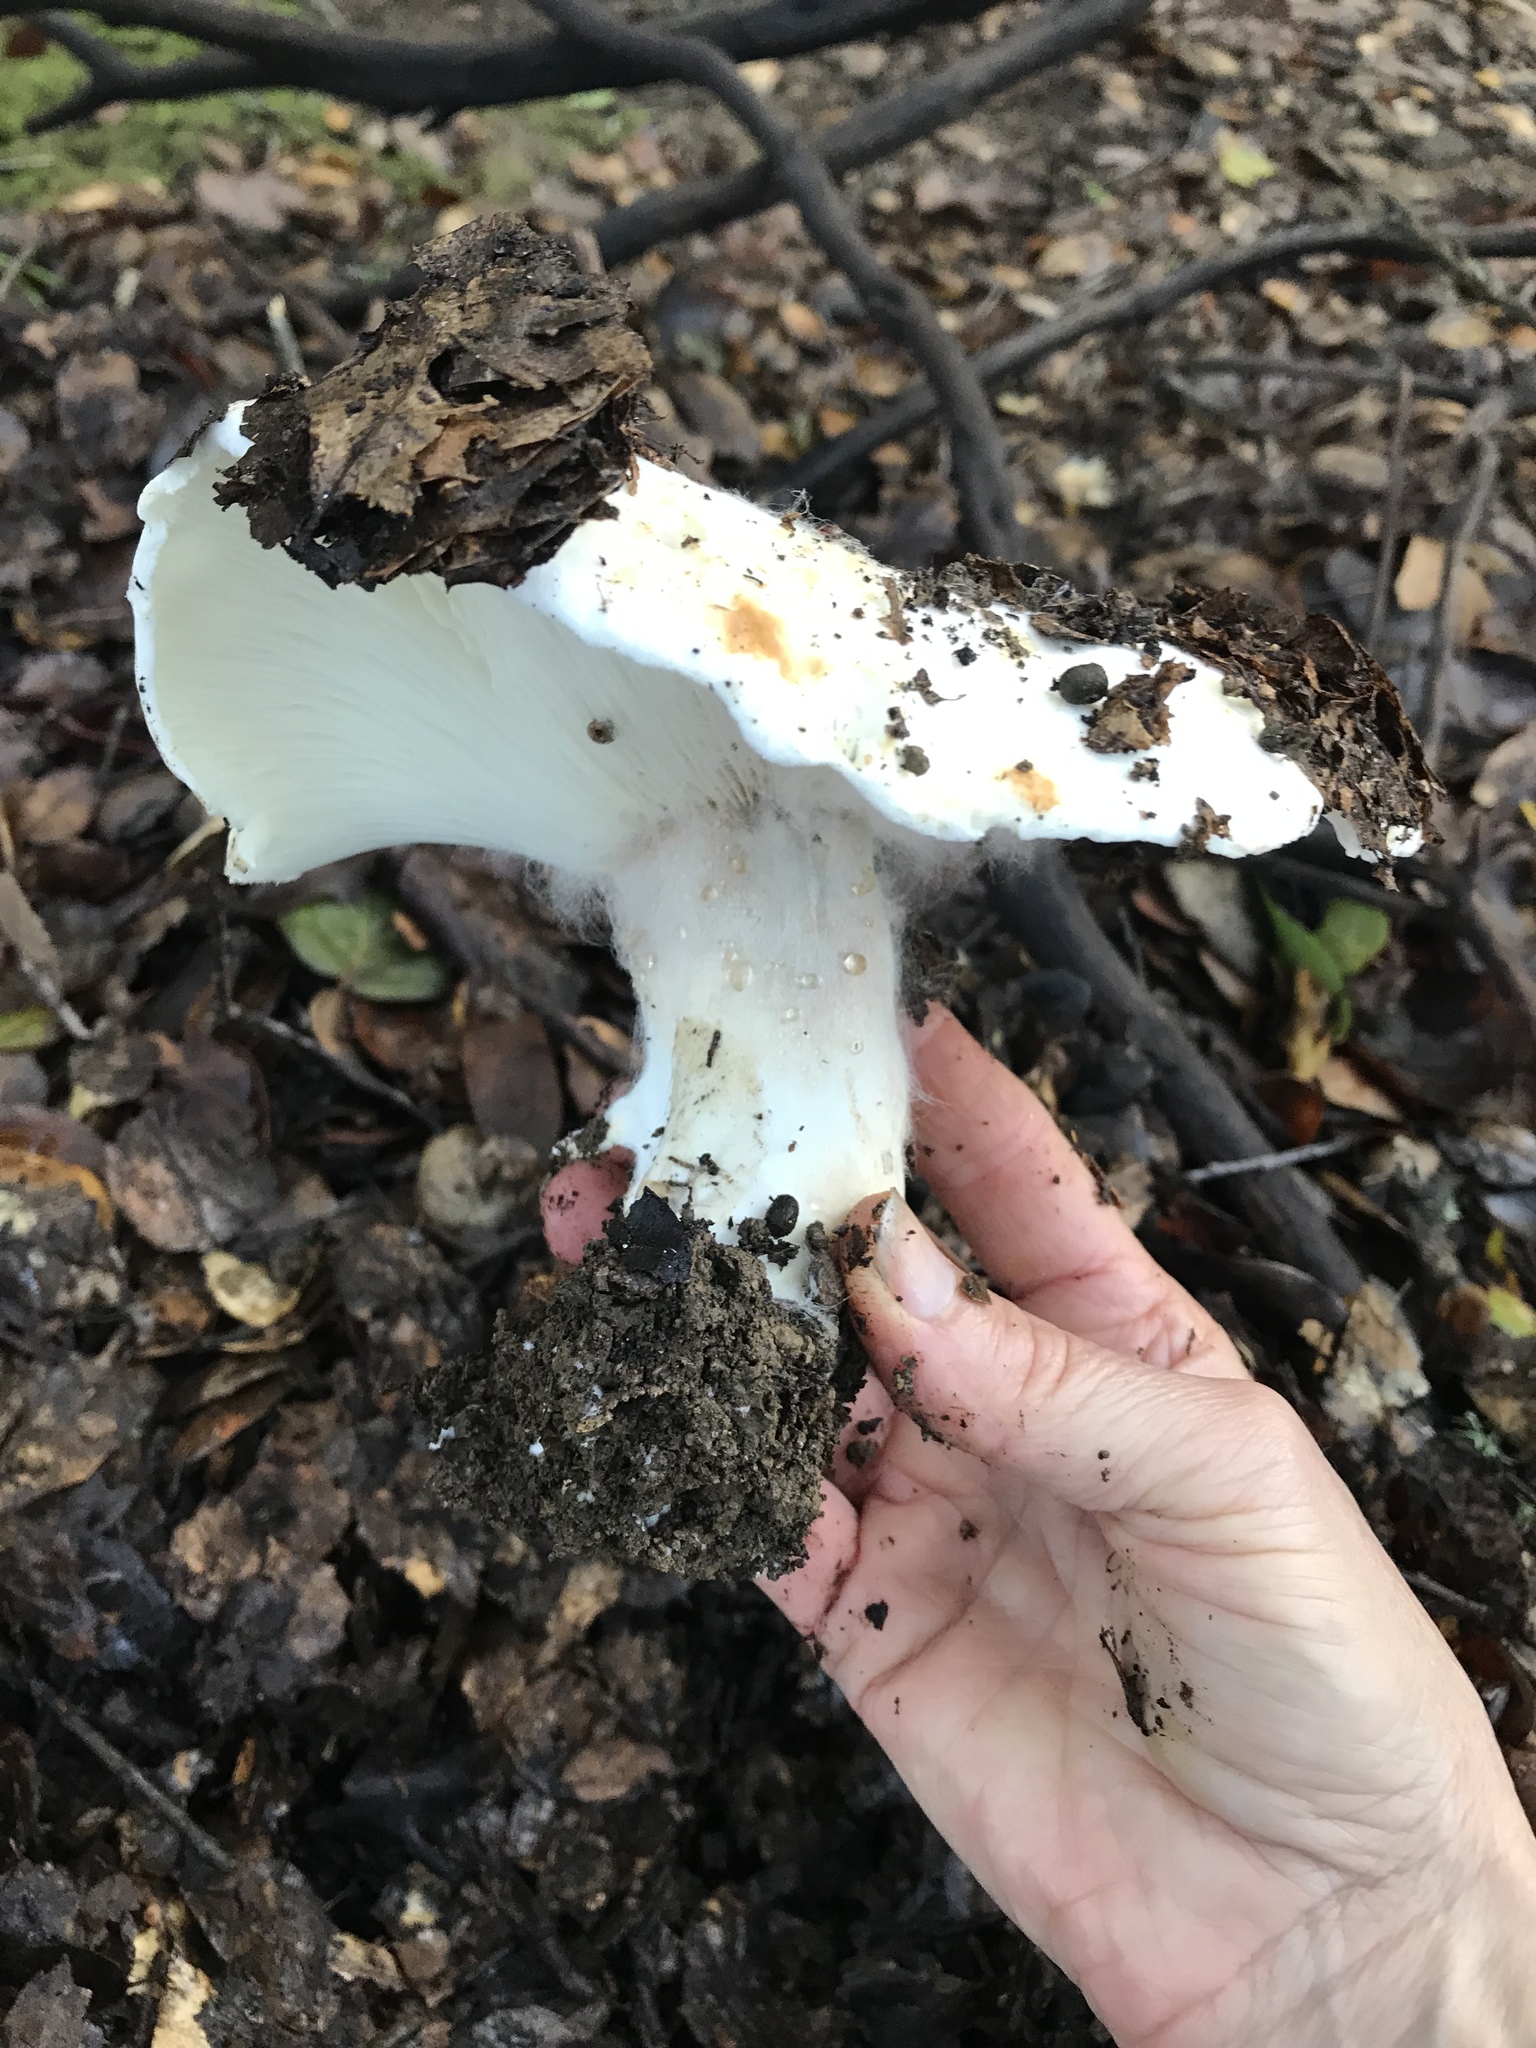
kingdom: Fungi
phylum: Basidiomycota
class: Agaricomycetes
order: Russulales
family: Russulaceae
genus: Russula
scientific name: Russula brevipes
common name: Short-stemmed russula
